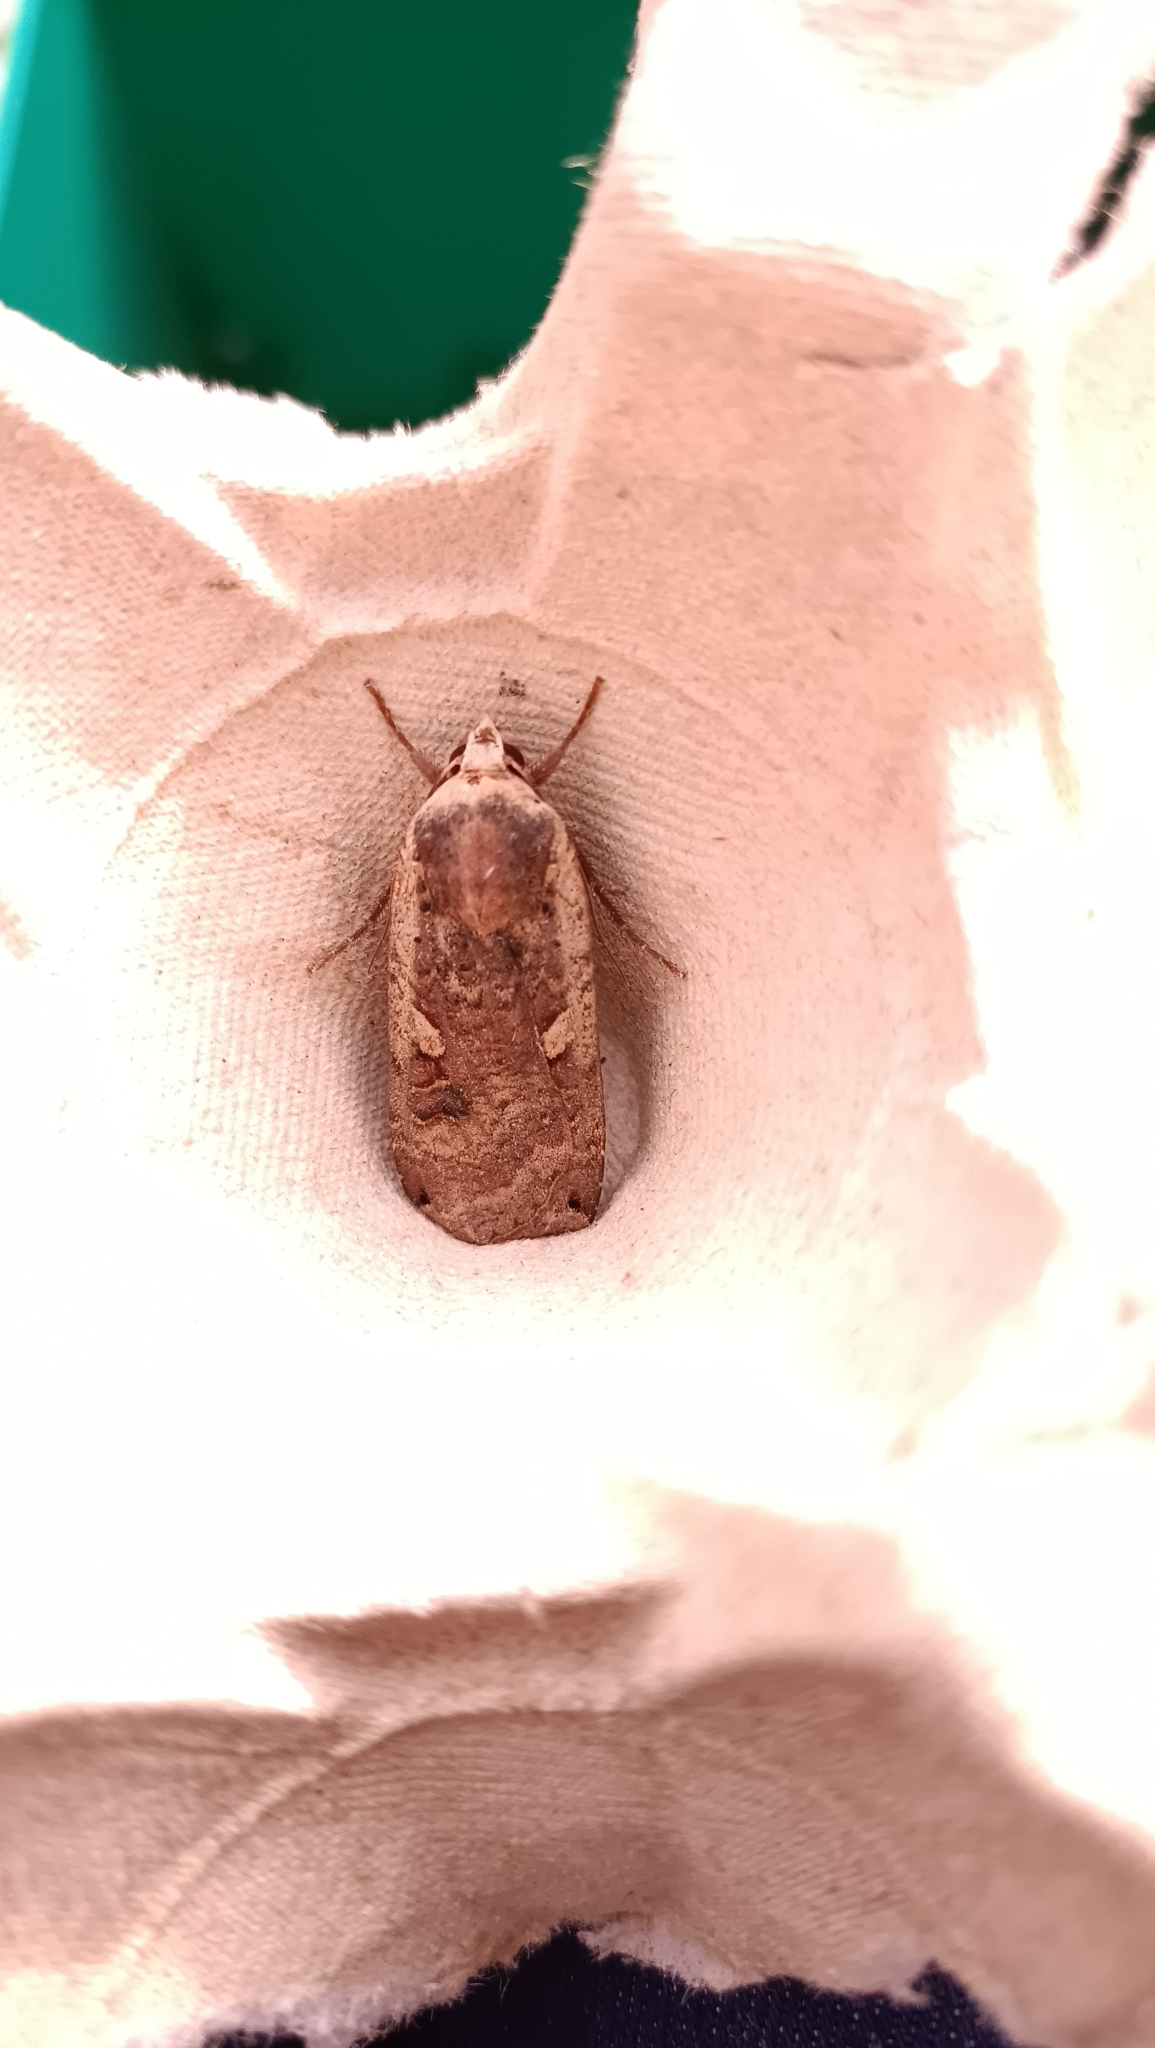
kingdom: Animalia
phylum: Arthropoda
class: Insecta
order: Lepidoptera
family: Noctuidae
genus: Noctua
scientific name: Noctua pronuba
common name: Large yellow underwing
